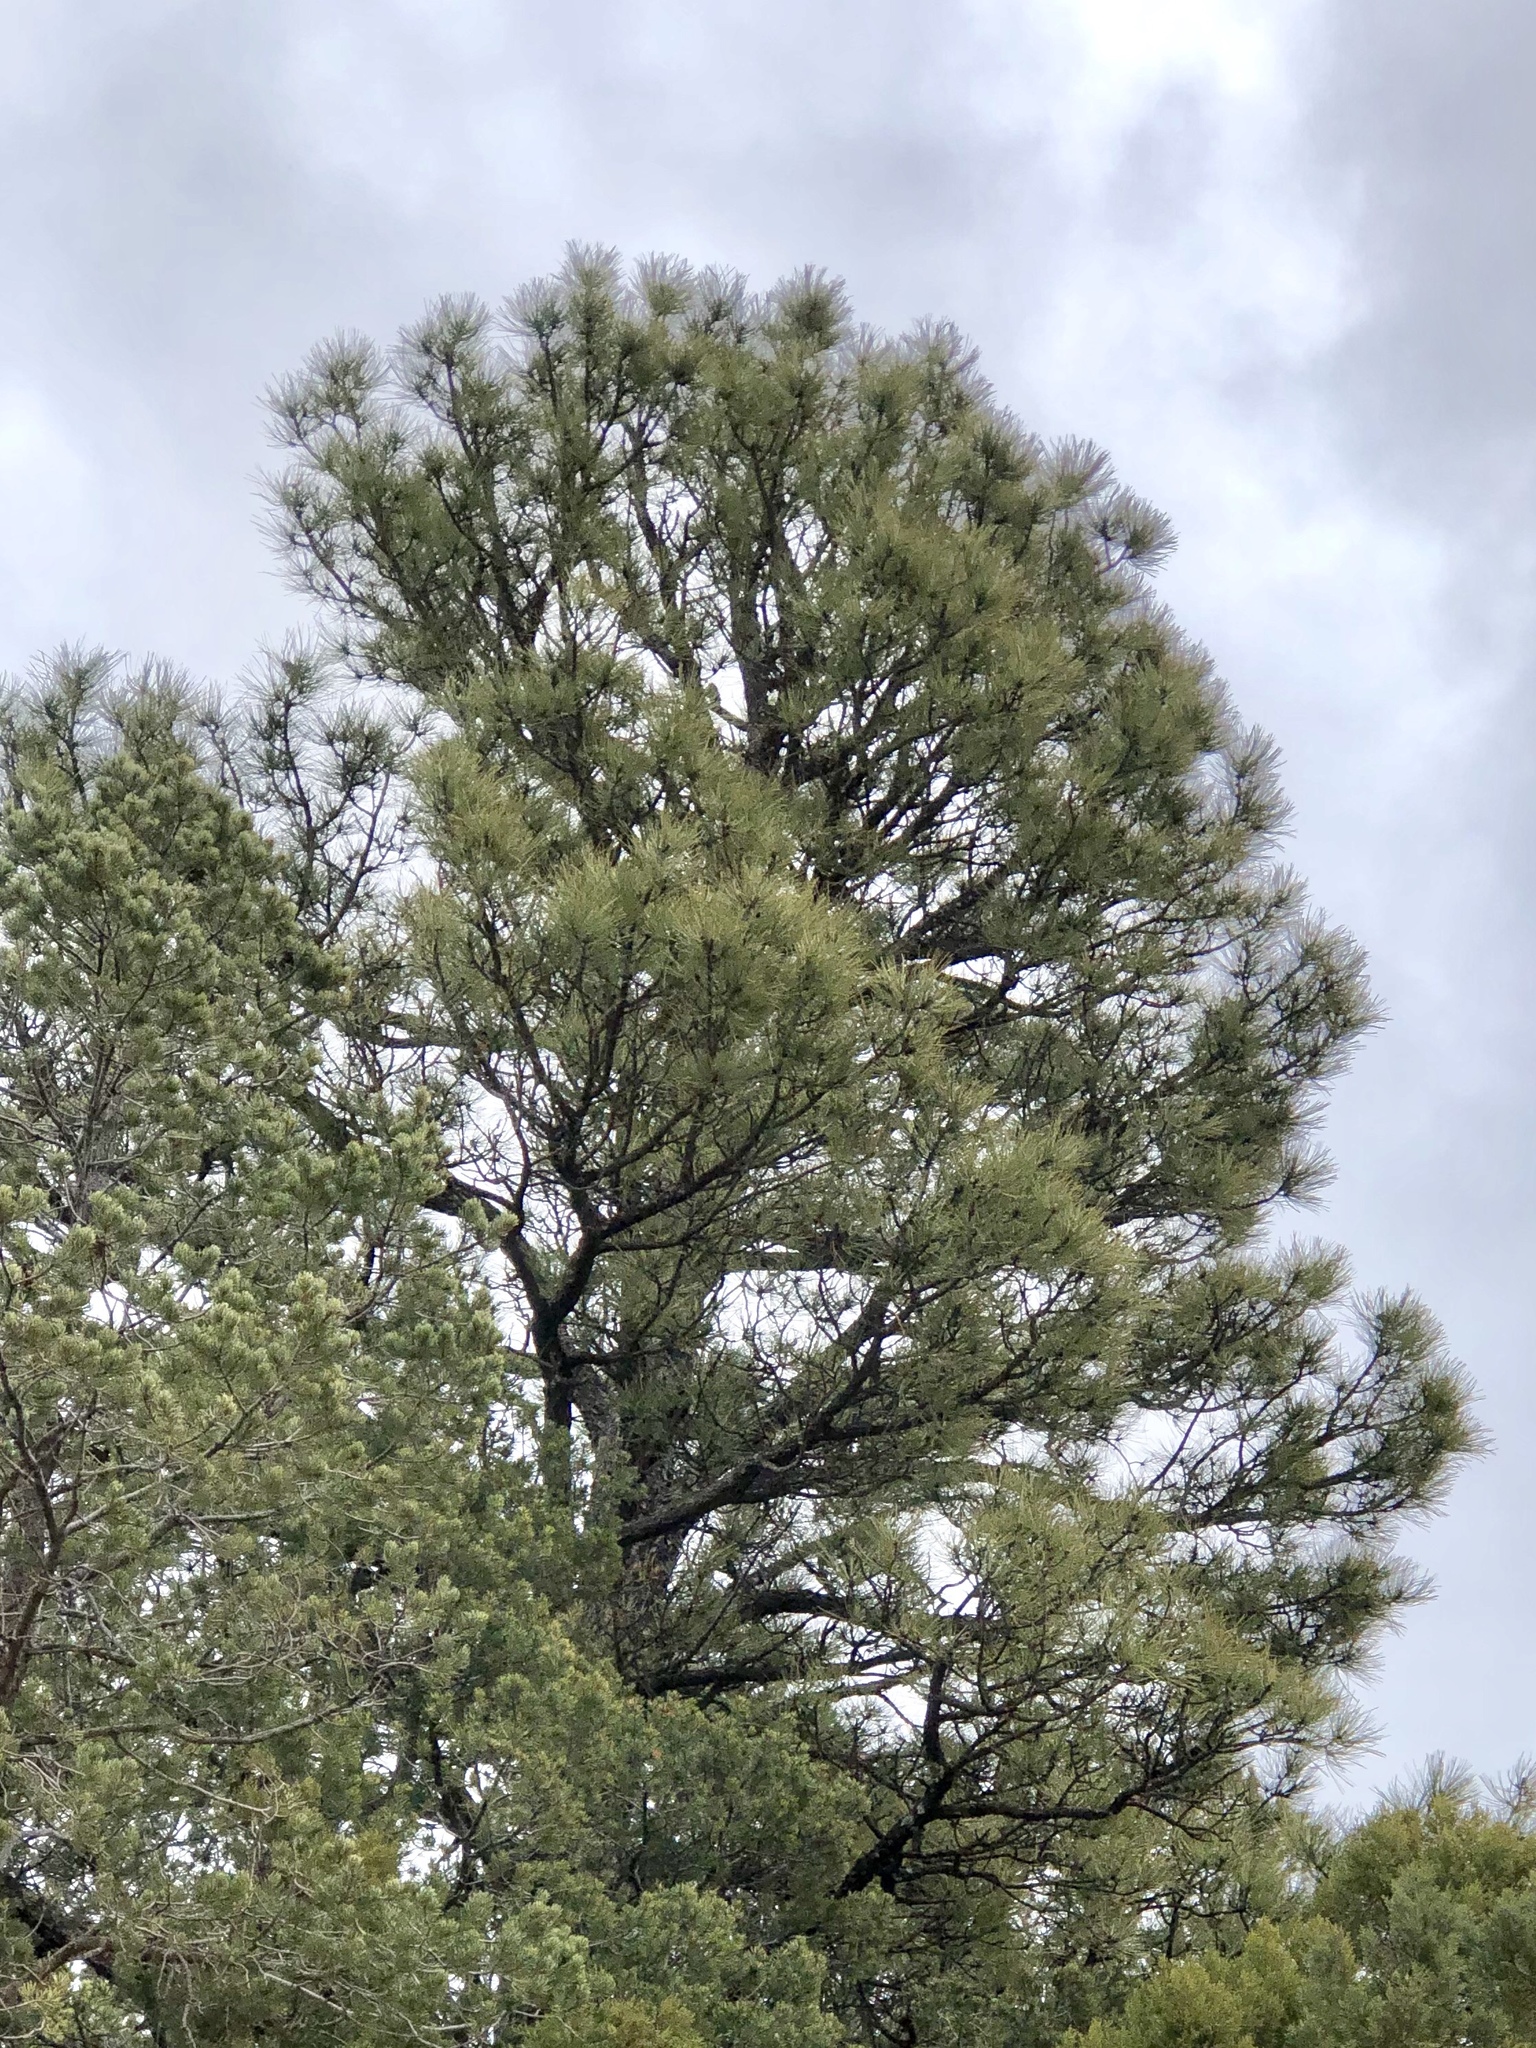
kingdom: Plantae
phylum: Tracheophyta
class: Pinopsida
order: Pinales
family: Pinaceae
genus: Pinus
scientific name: Pinus ponderosa
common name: Western yellow-pine
